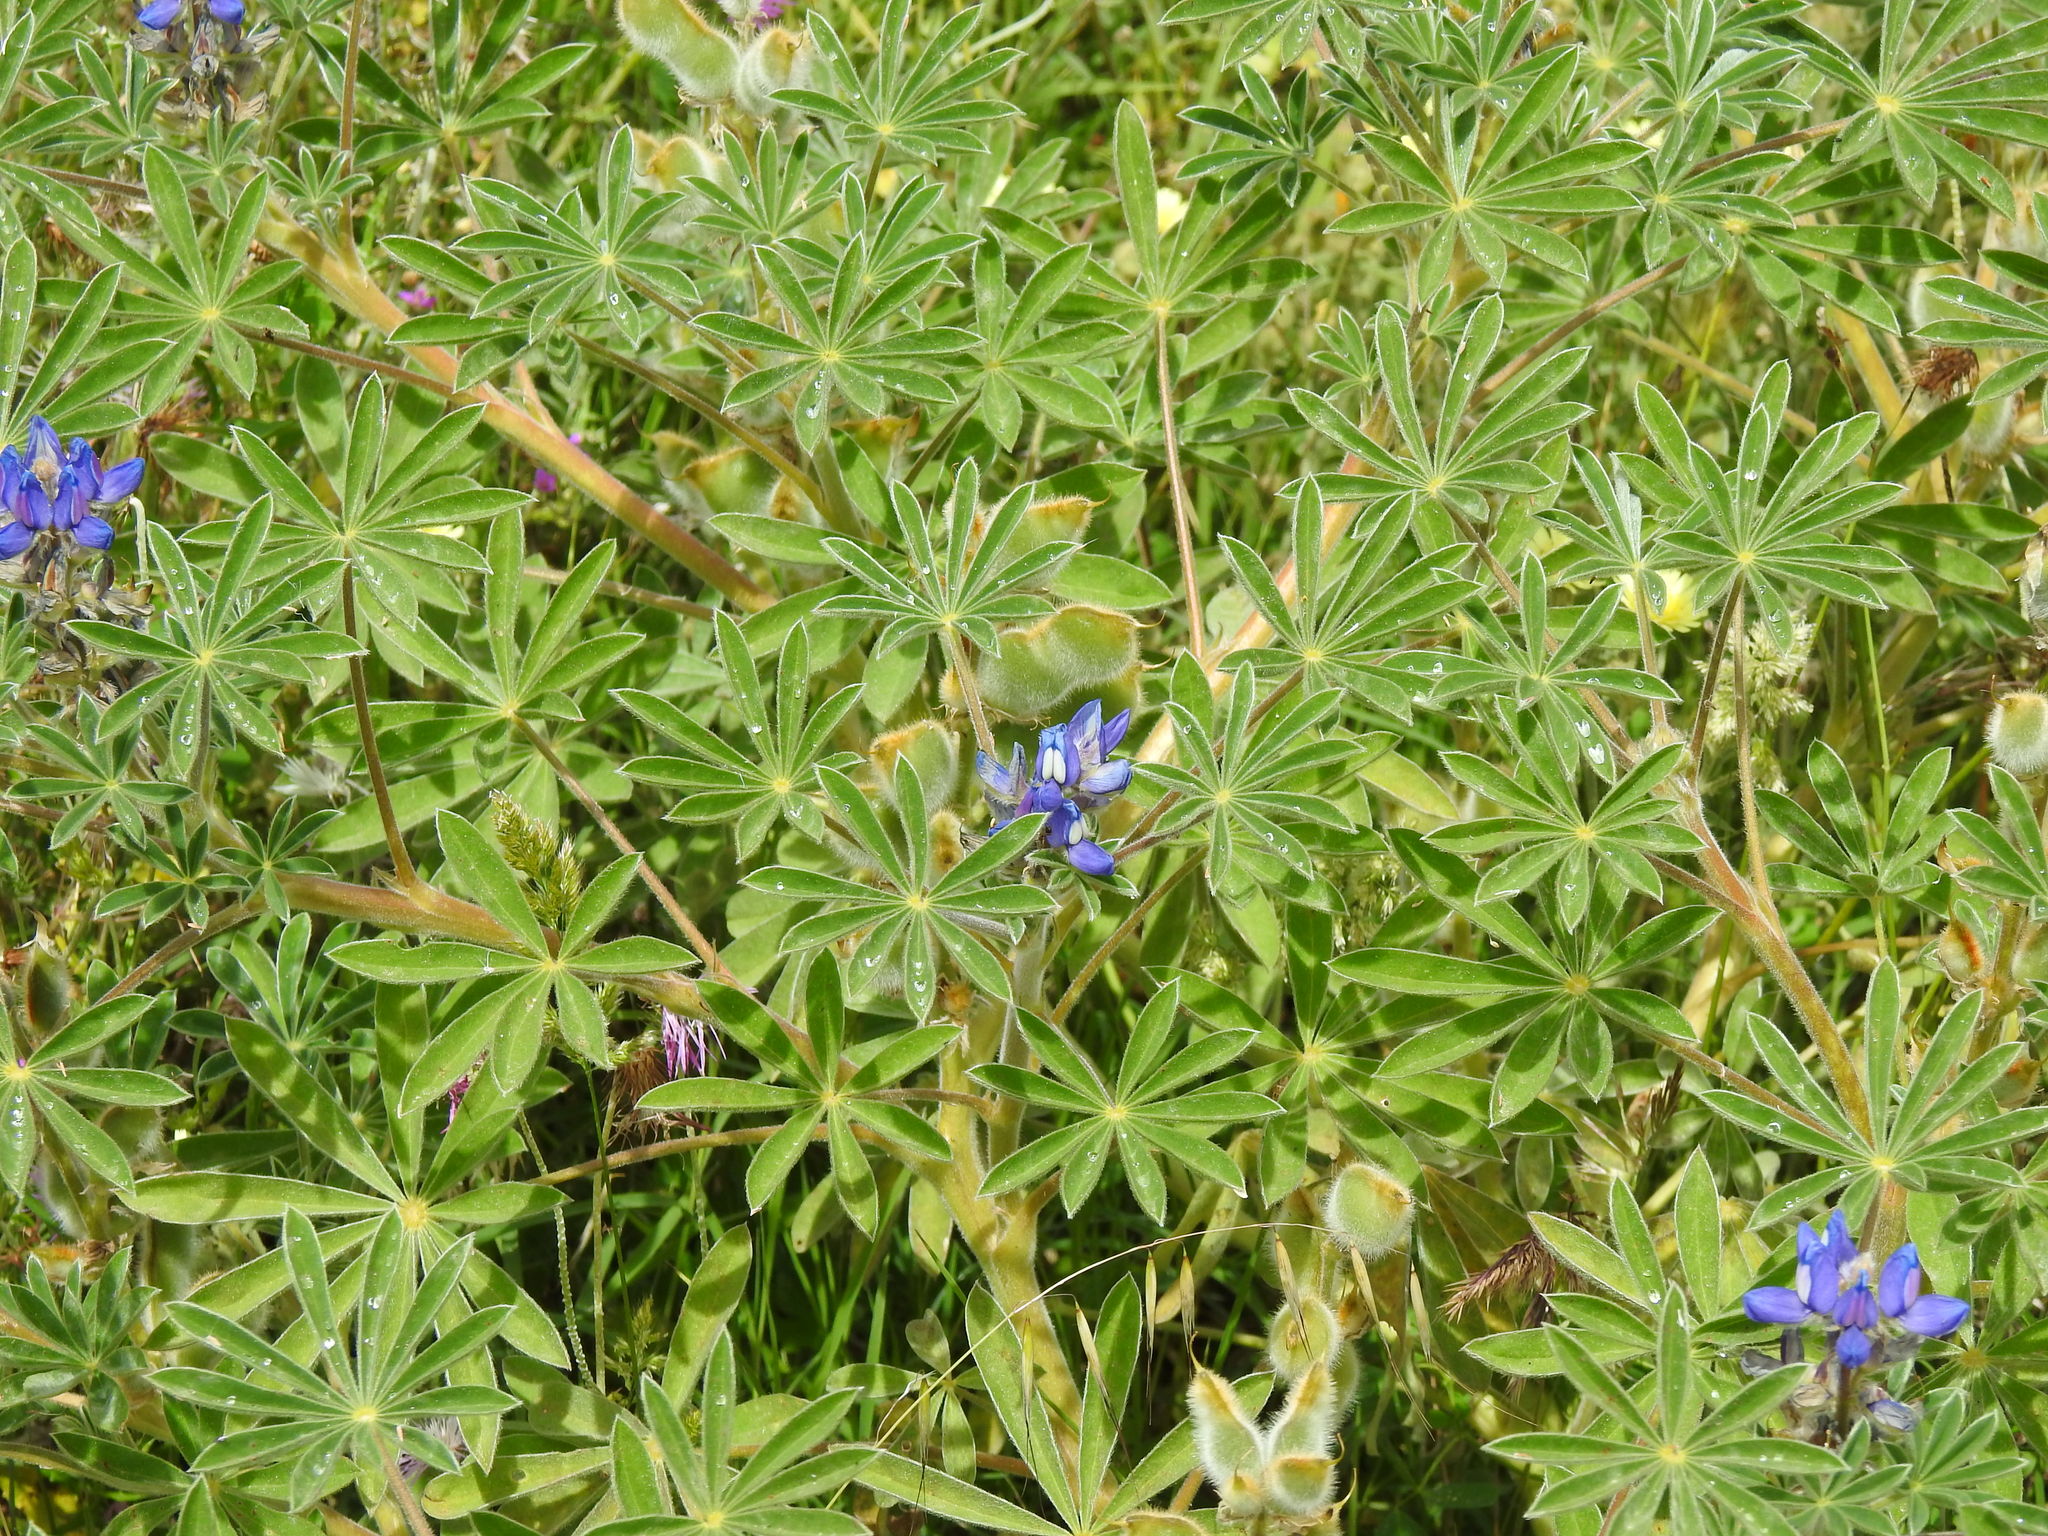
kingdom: Plantae
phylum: Tracheophyta
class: Magnoliopsida
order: Fabales
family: Fabaceae
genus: Lupinus
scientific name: Lupinus cosentinii
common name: Hairy blue lupin
